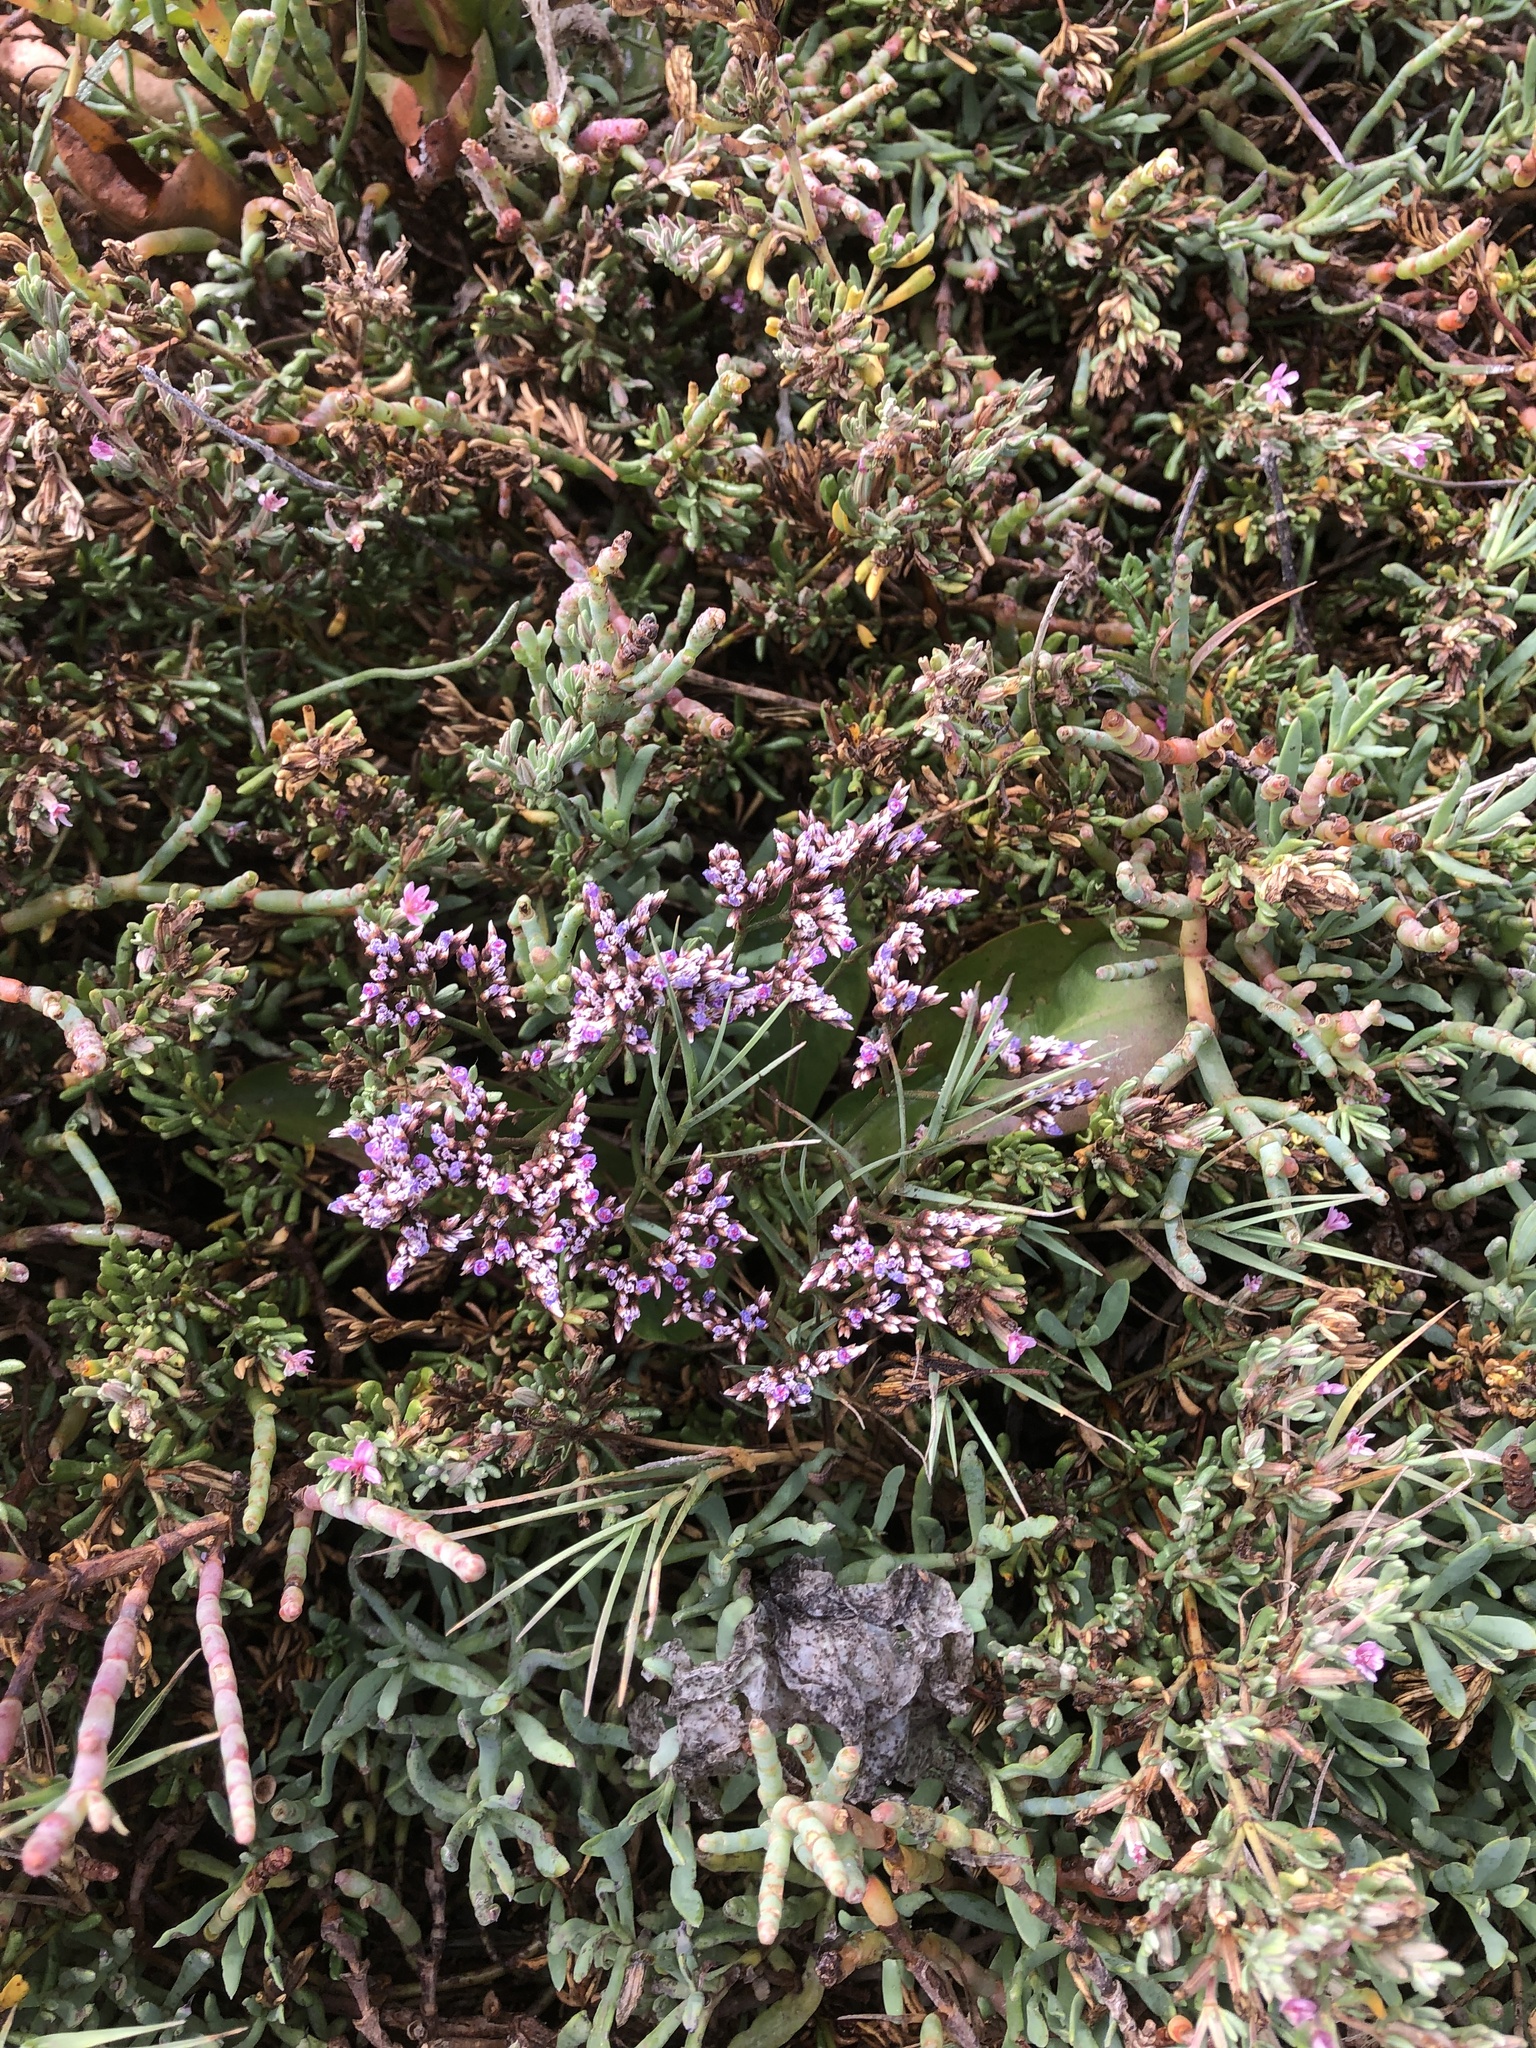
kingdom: Plantae
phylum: Tracheophyta
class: Magnoliopsida
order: Caryophyllales
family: Plumbaginaceae
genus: Limonium
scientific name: Limonium californicum
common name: Marsh-rosemary
